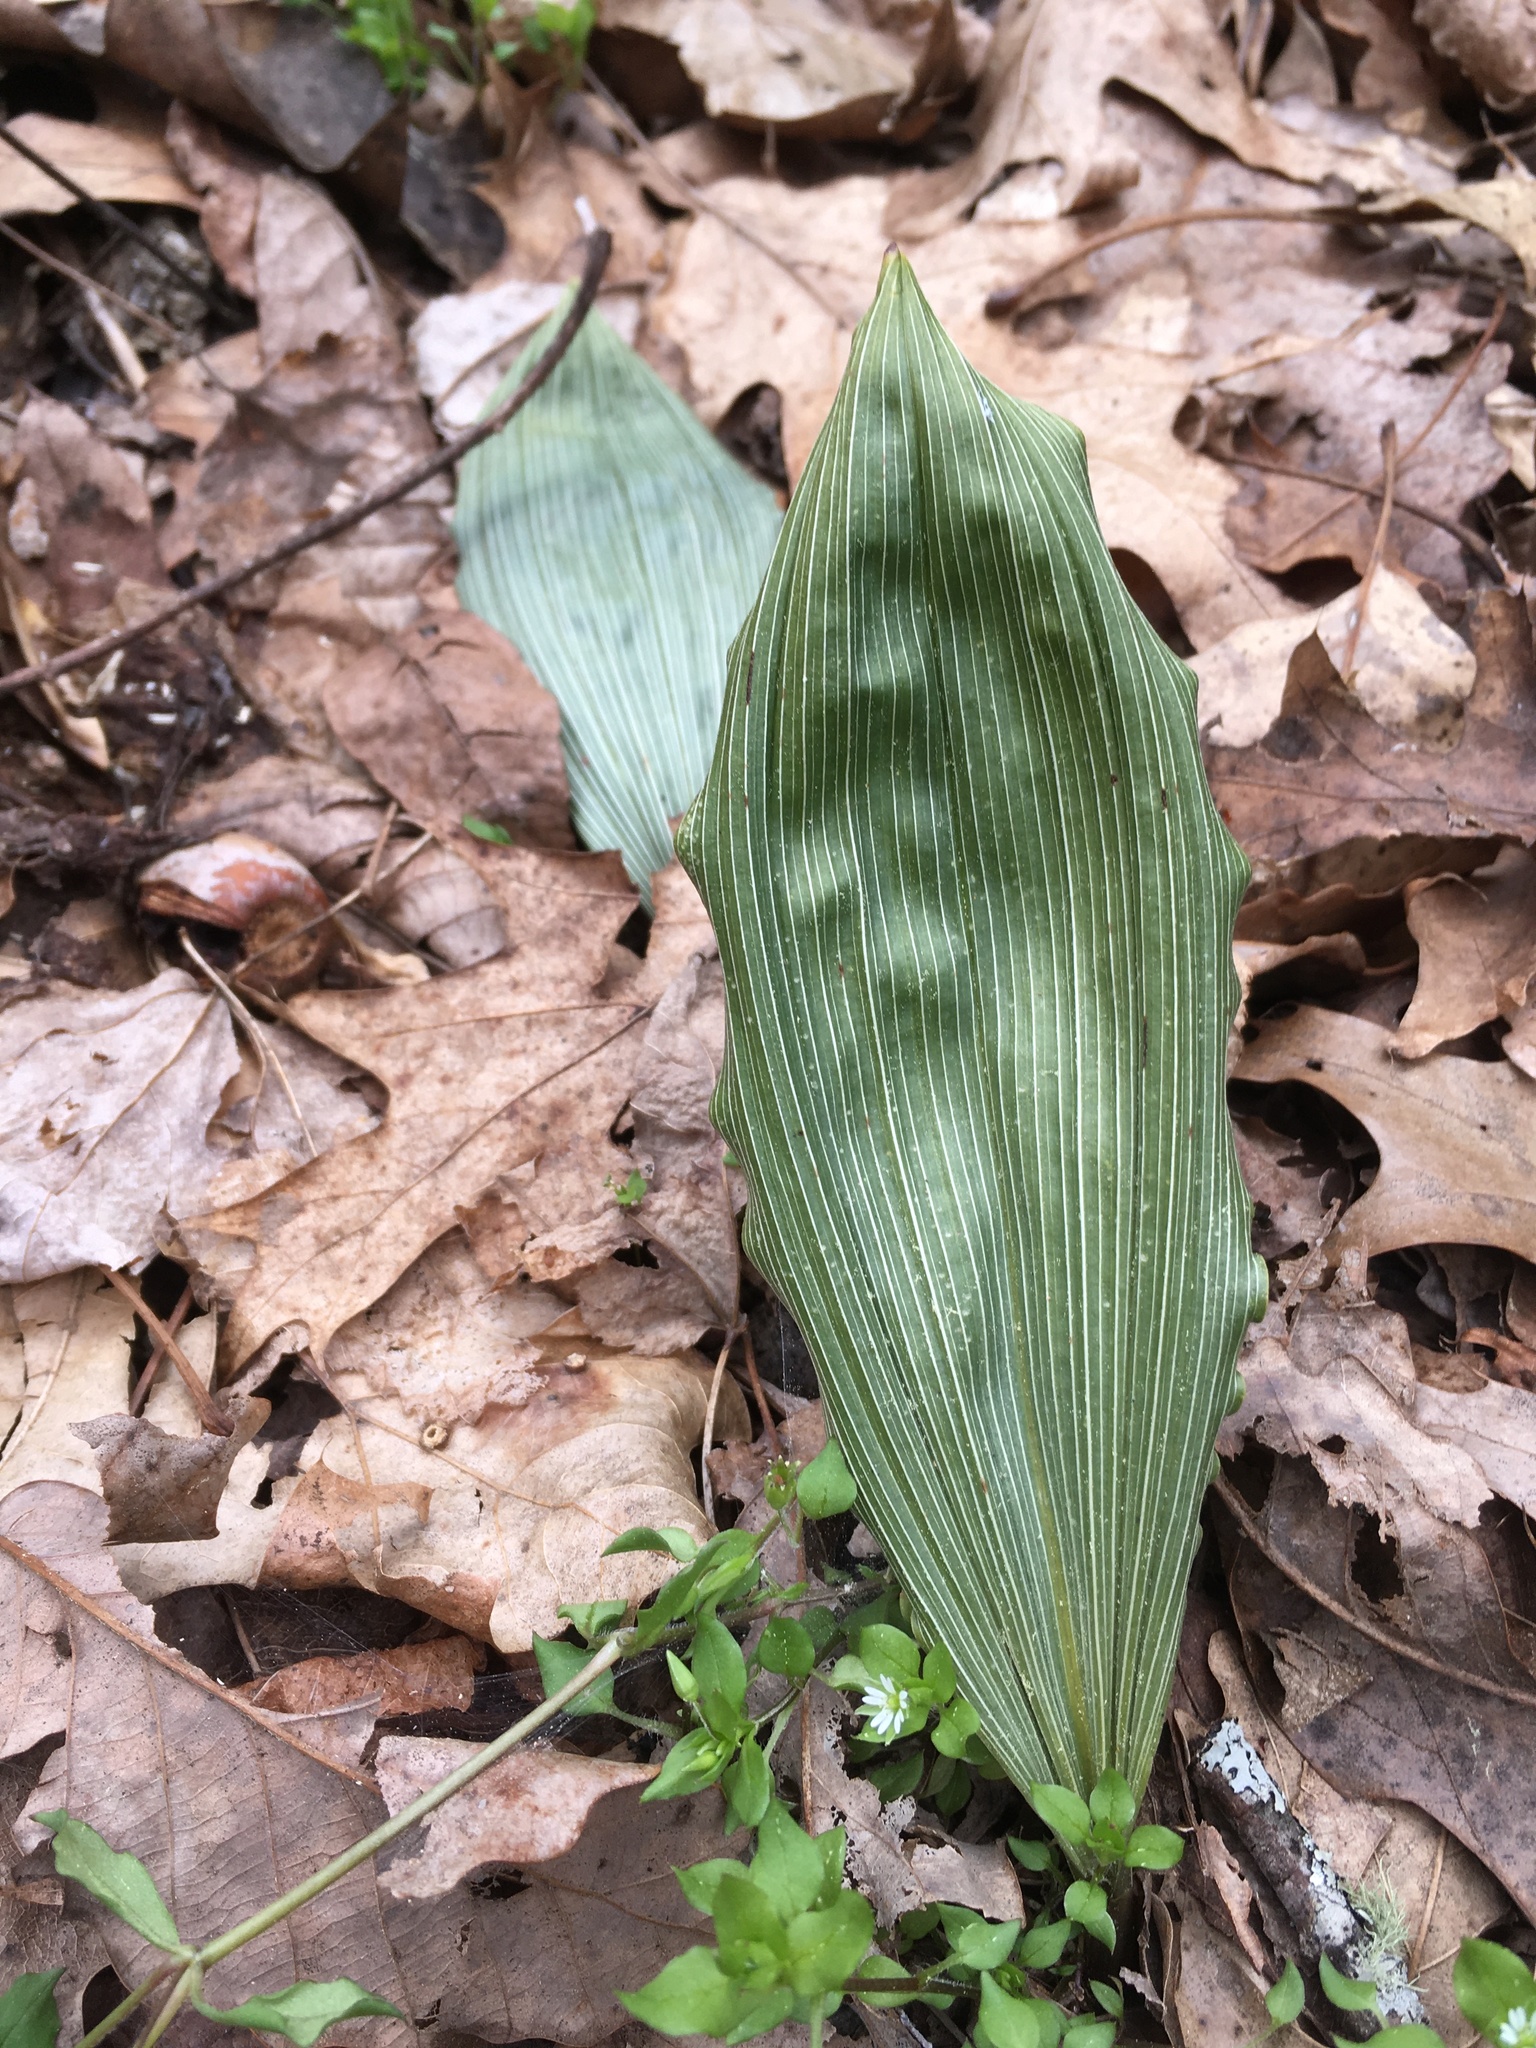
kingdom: Plantae
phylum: Tracheophyta
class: Liliopsida
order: Asparagales
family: Orchidaceae
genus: Aplectrum
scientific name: Aplectrum hyemale
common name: Adam-and-eve
